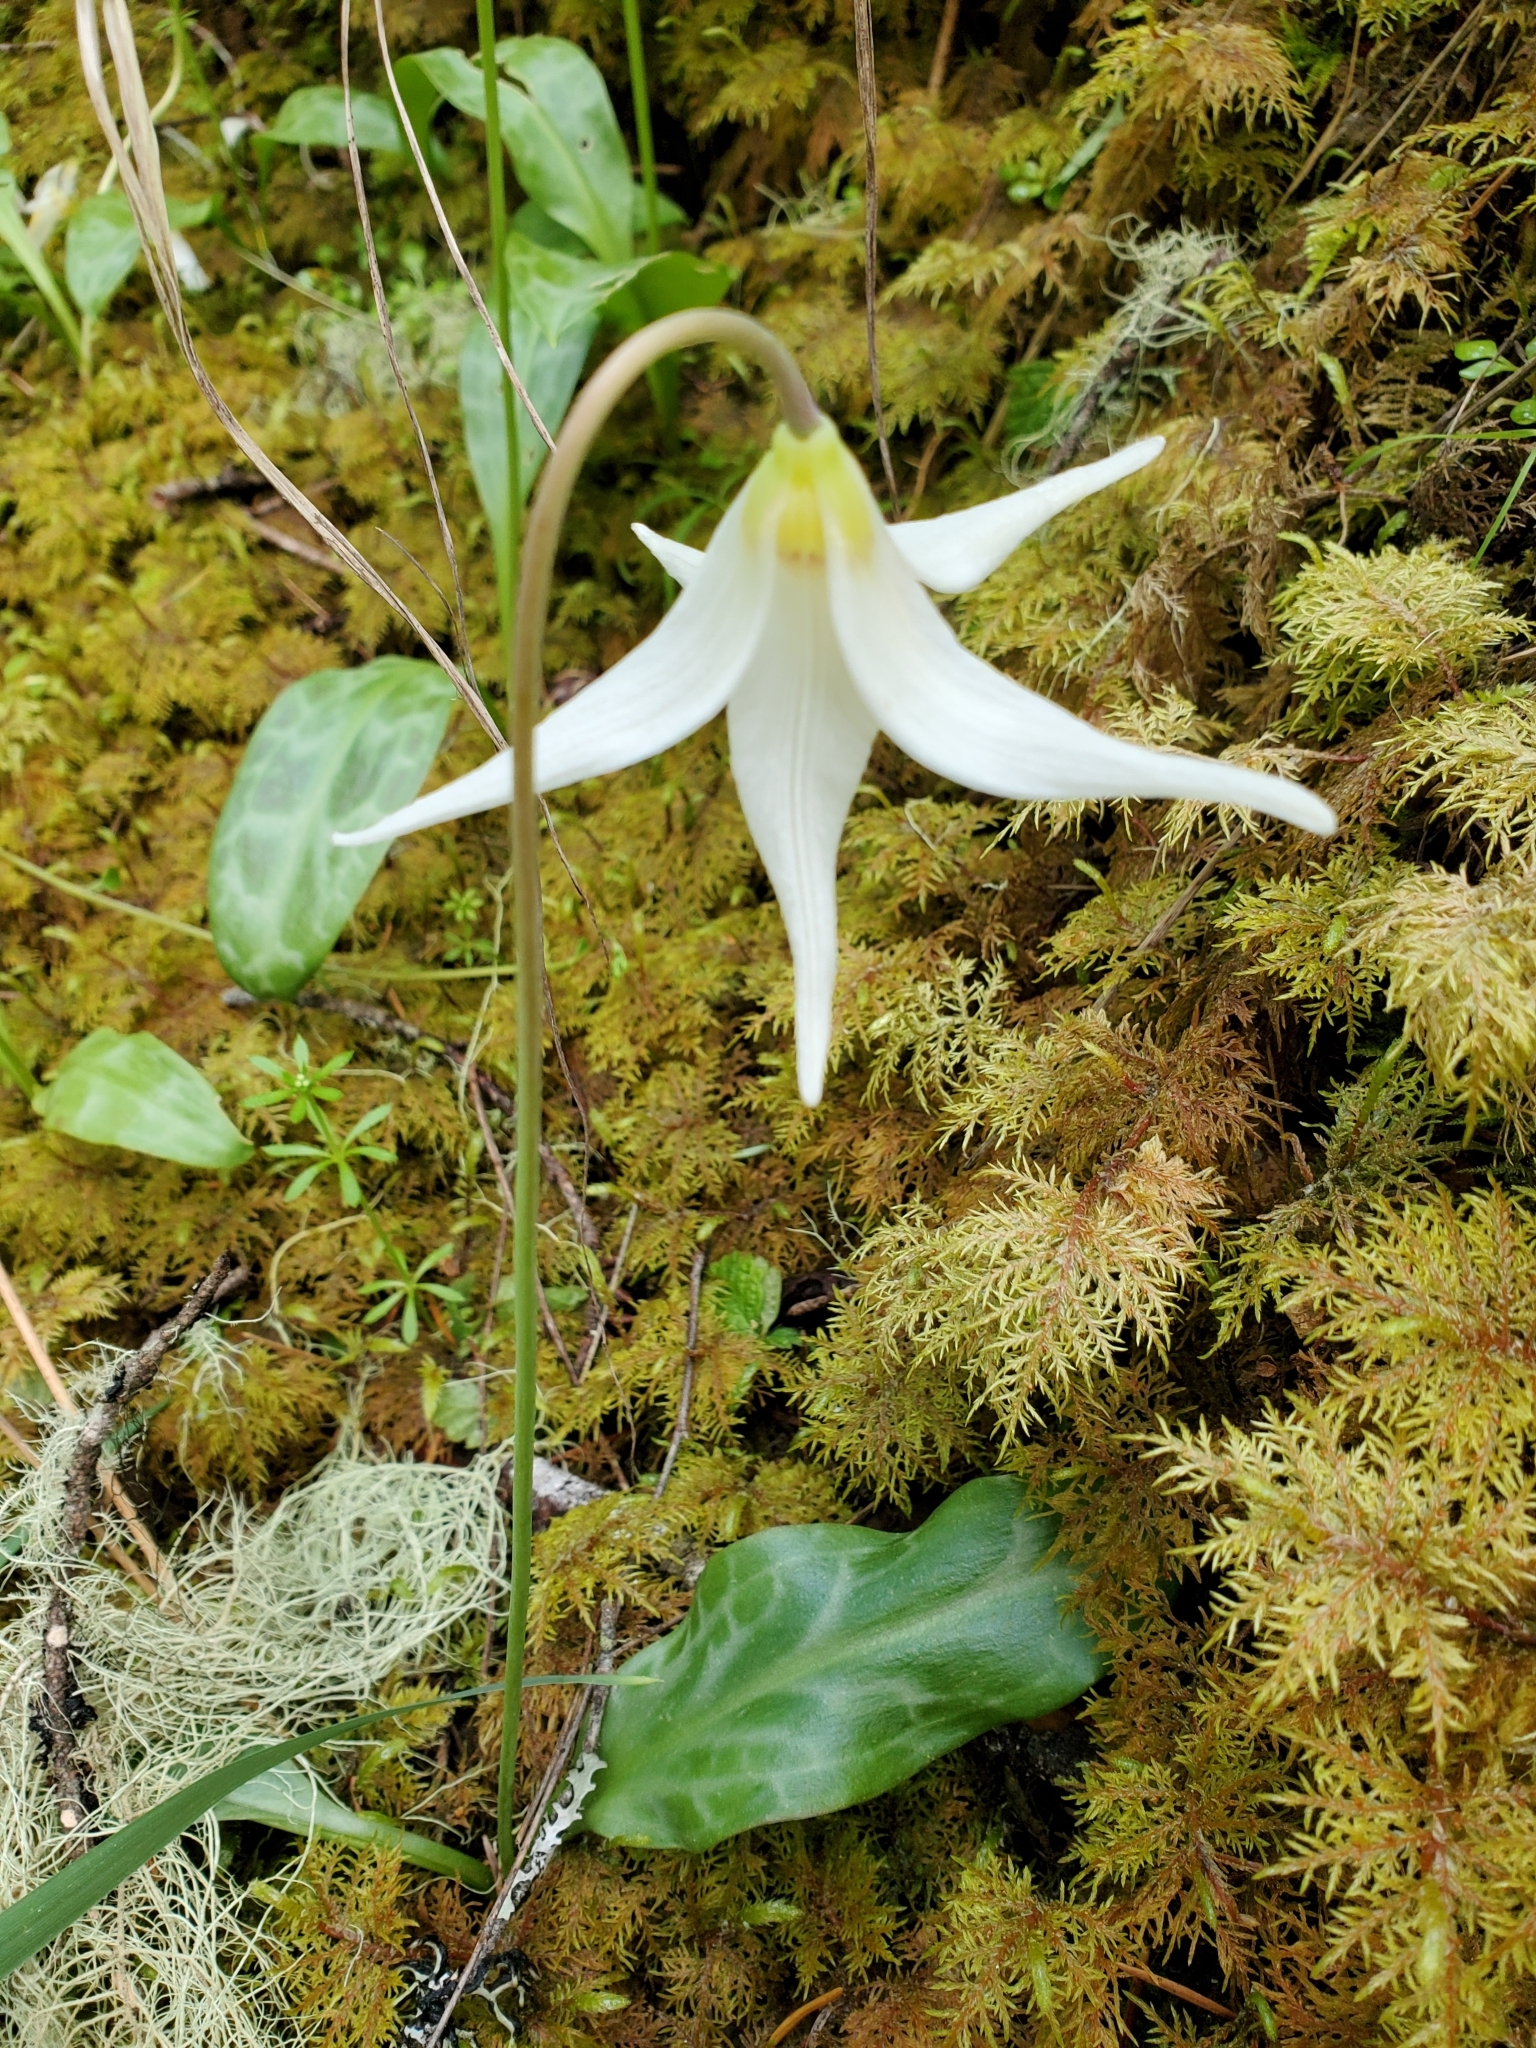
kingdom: Plantae
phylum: Tracheophyta
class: Liliopsida
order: Liliales
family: Liliaceae
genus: Erythronium
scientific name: Erythronium oregonum
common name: Giant adder's-tongue
